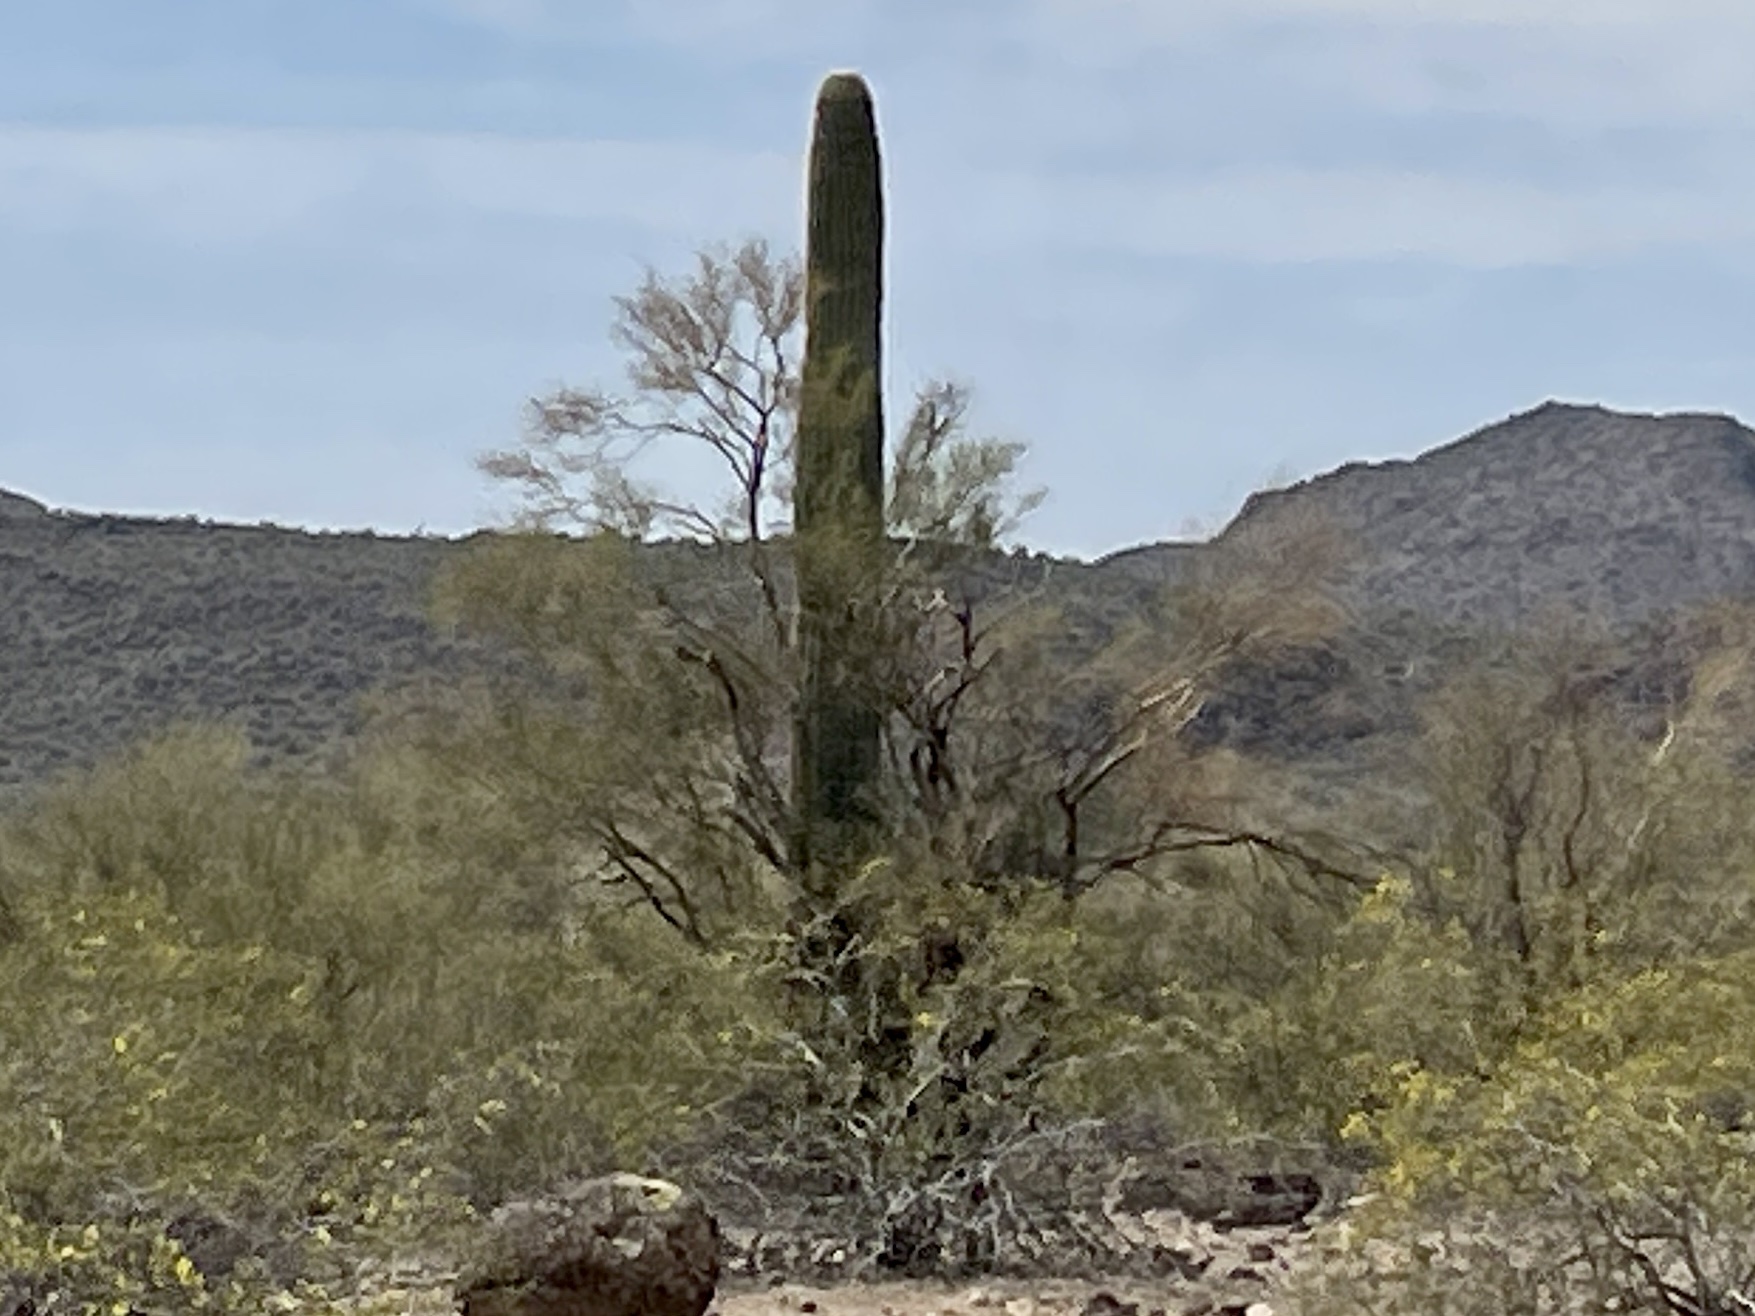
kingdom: Plantae
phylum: Tracheophyta
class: Magnoliopsida
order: Caryophyllales
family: Cactaceae
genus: Carnegiea
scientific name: Carnegiea gigantea
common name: Saguaro
